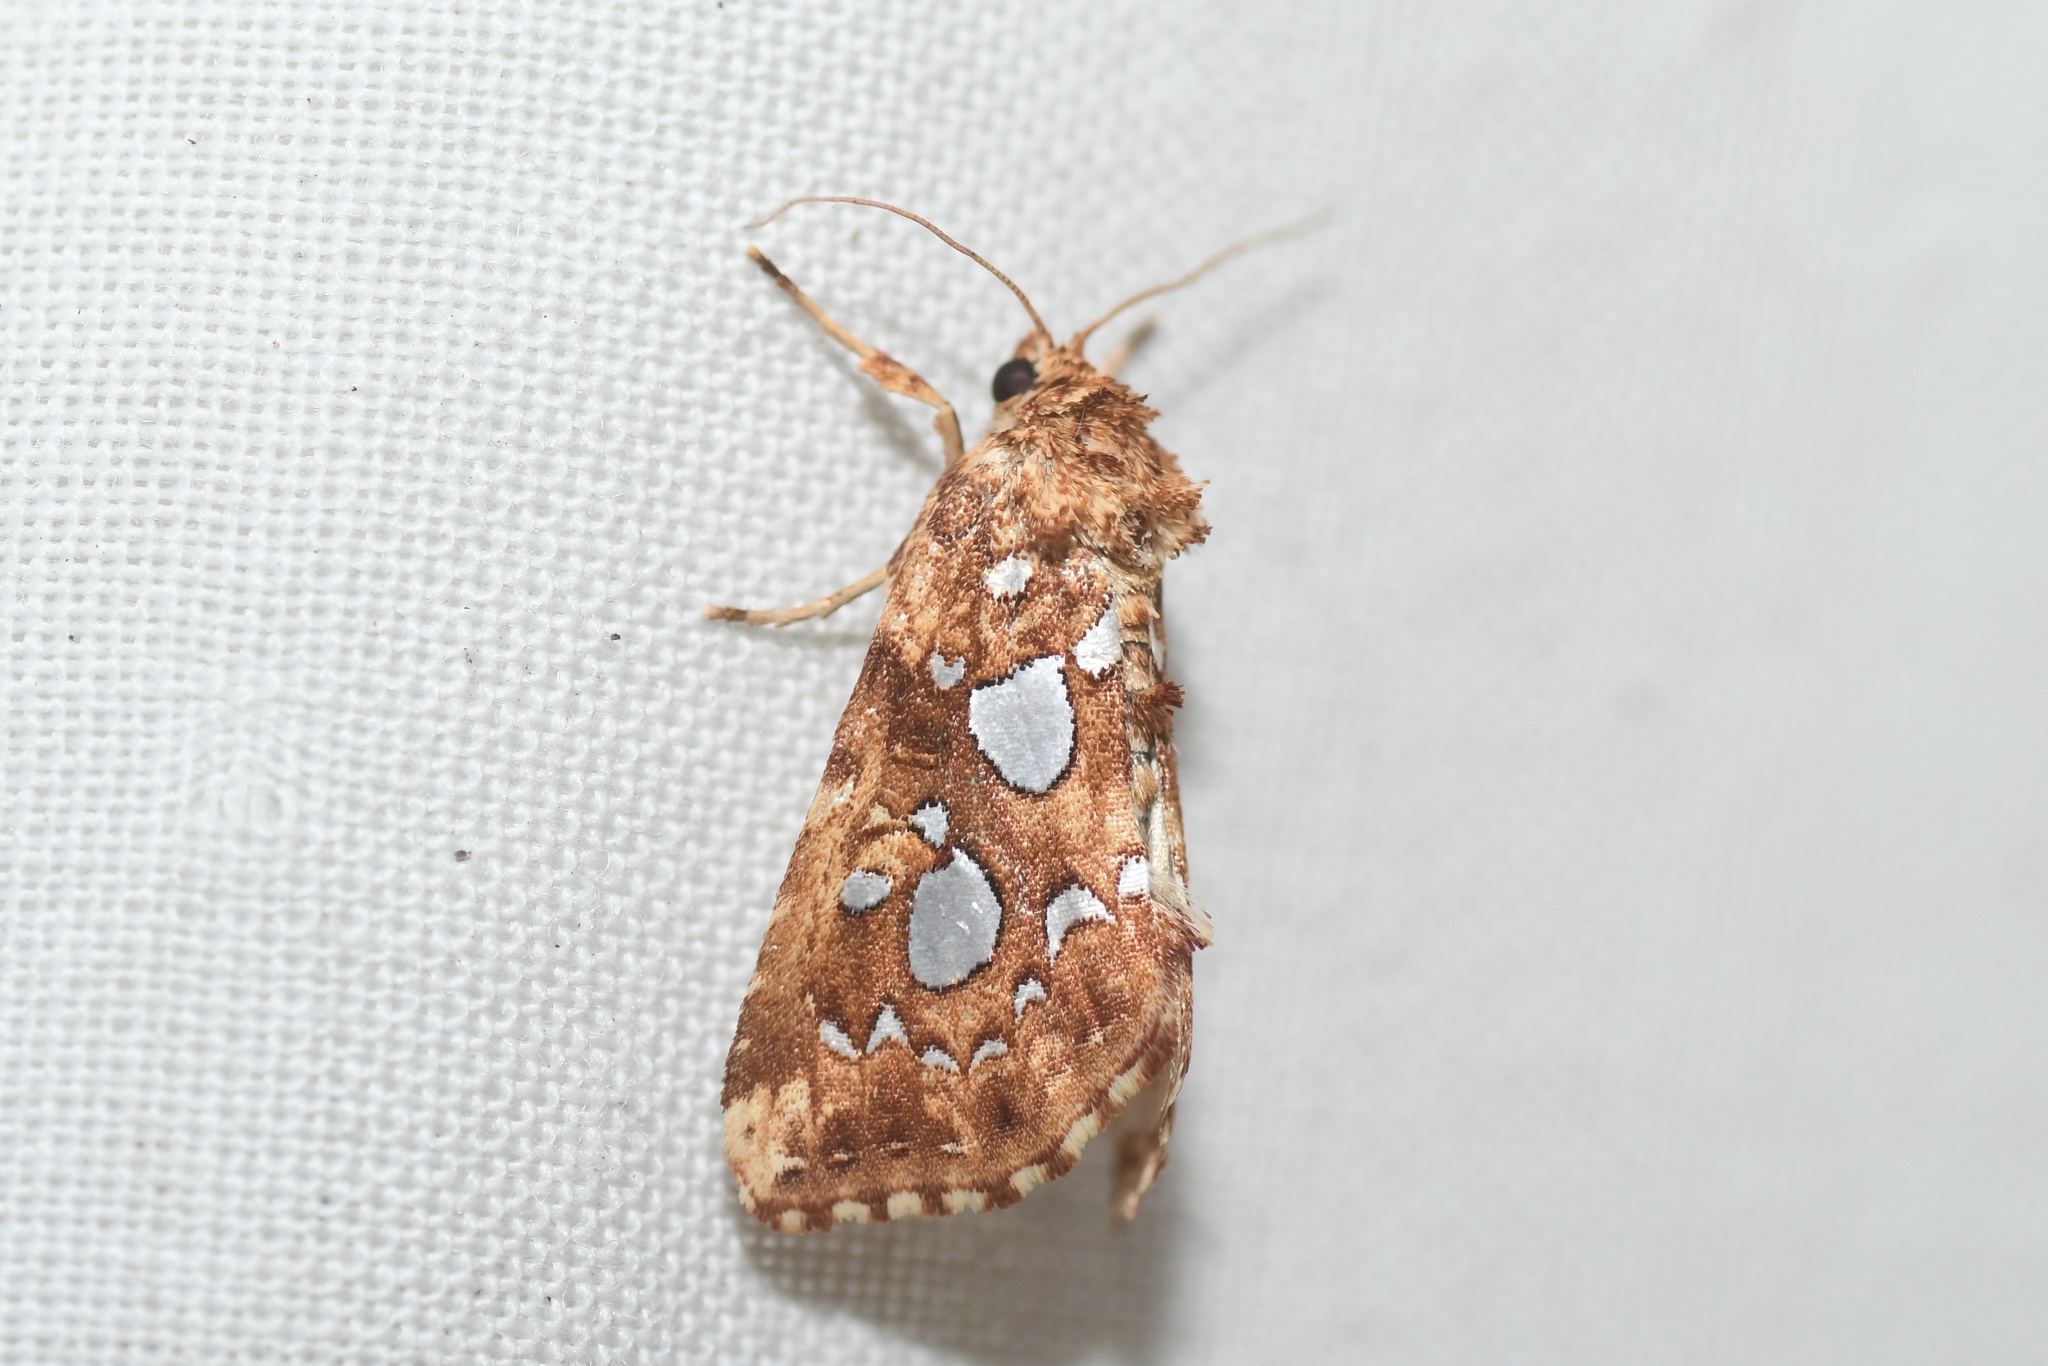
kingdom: Animalia
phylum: Arthropoda
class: Insecta
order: Lepidoptera
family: Noctuidae
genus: Callopistria
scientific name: Callopistria cordata
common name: Silver-spotted fern moth
